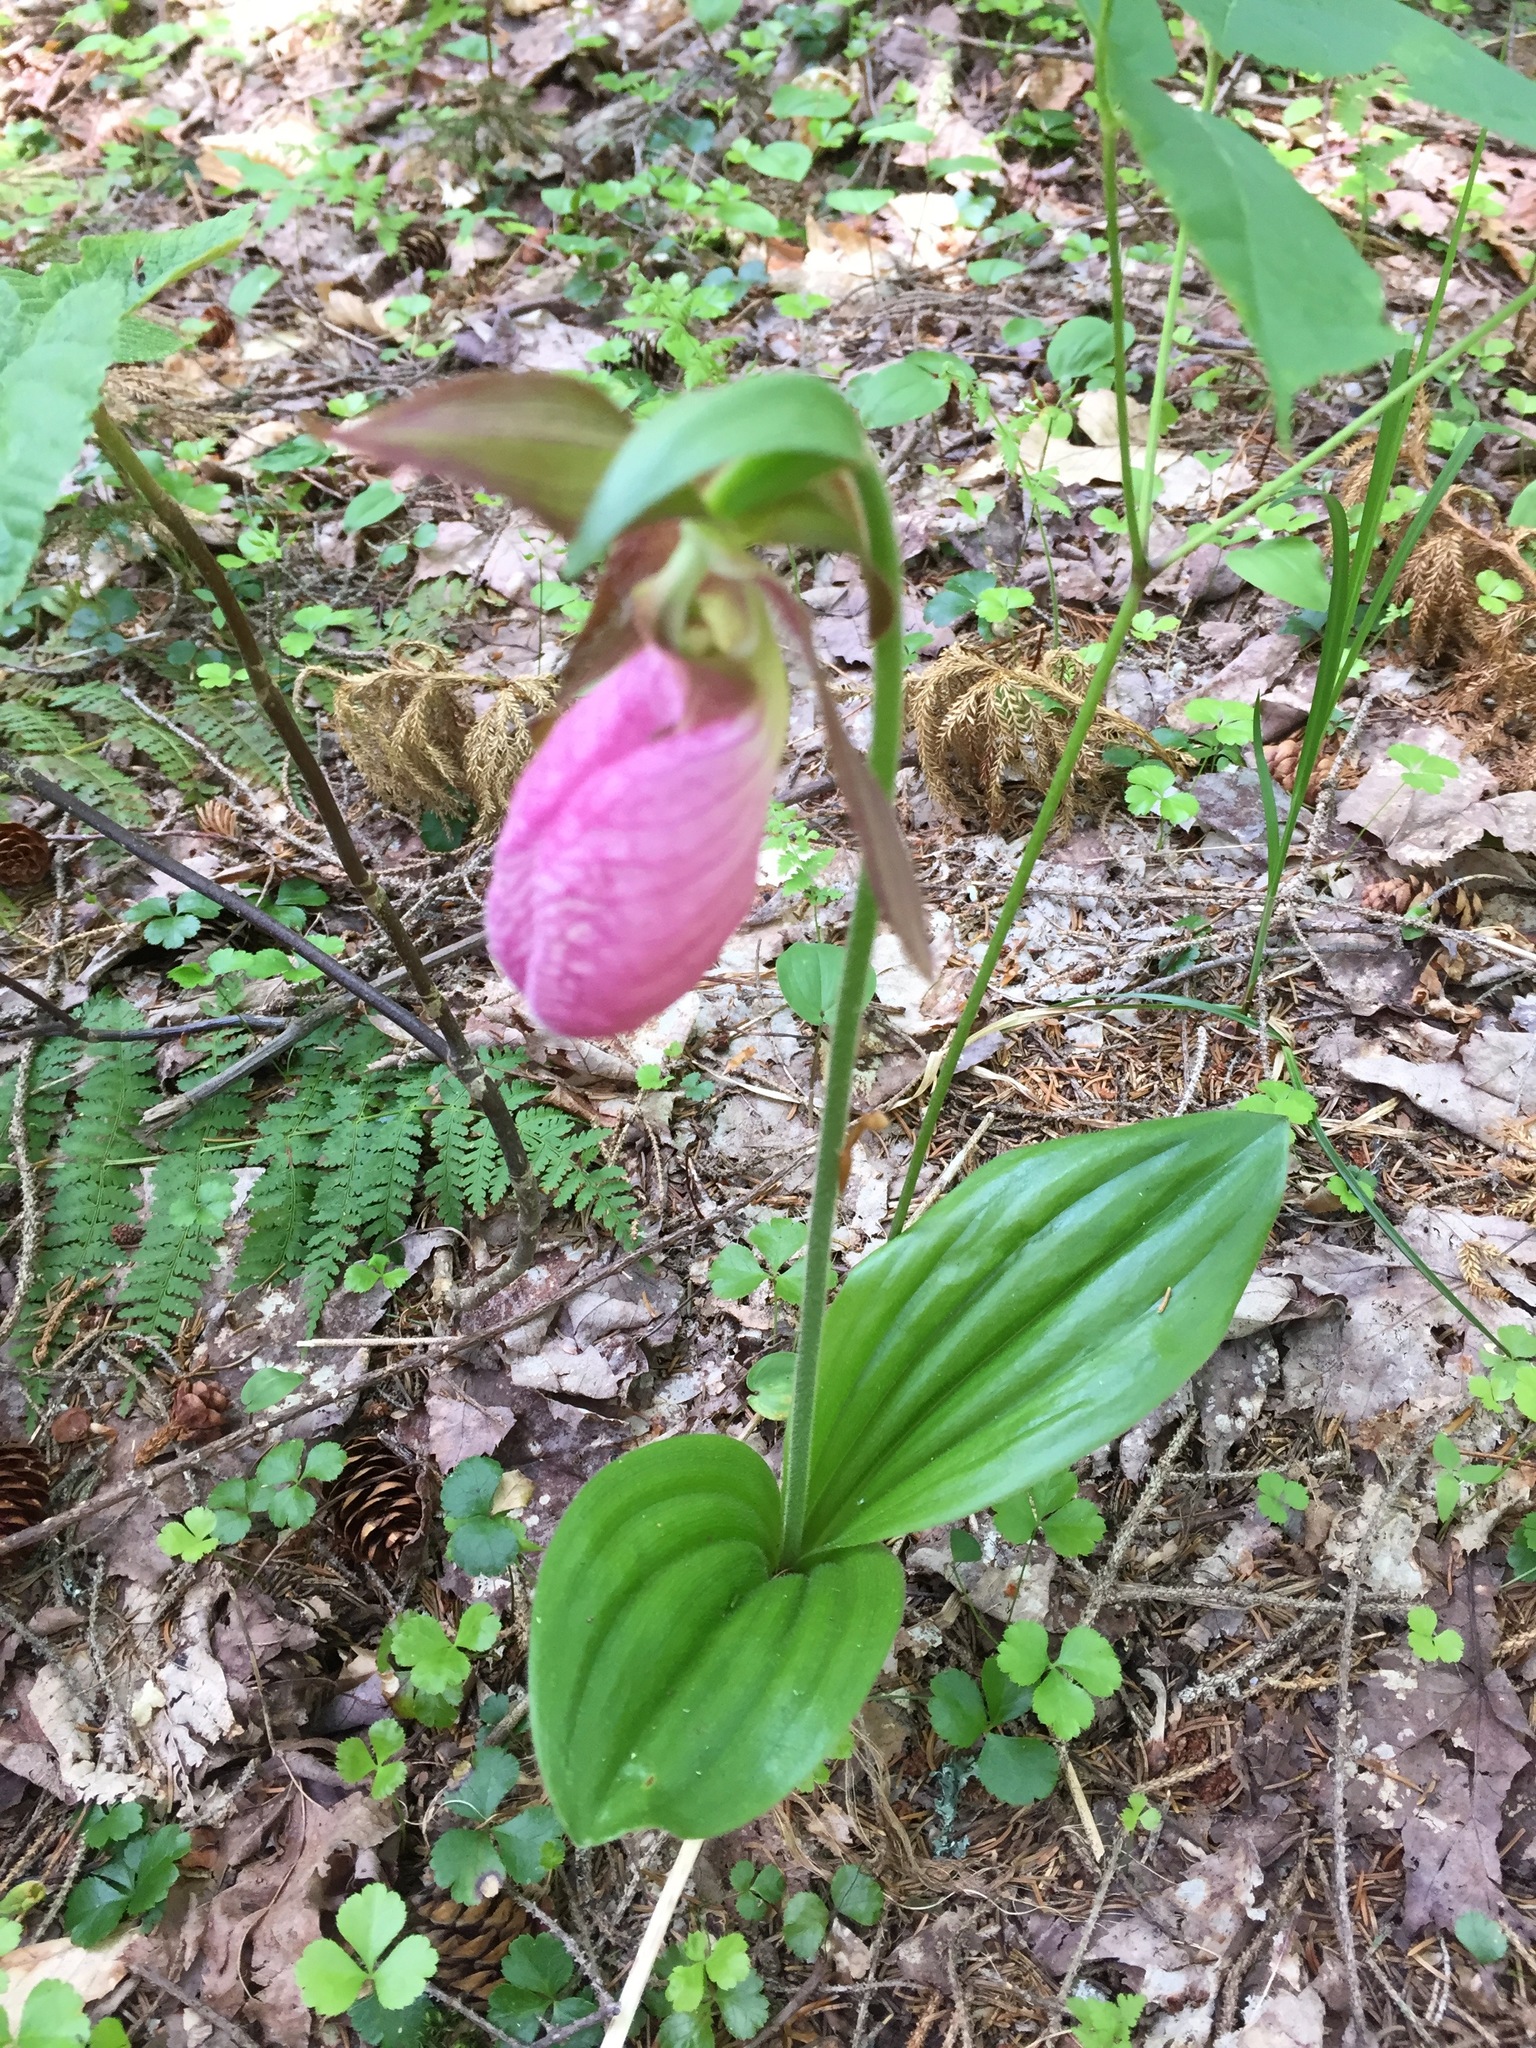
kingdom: Plantae
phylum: Tracheophyta
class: Liliopsida
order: Asparagales
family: Orchidaceae
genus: Cypripedium
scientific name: Cypripedium acaule
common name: Pink lady's-slipper
